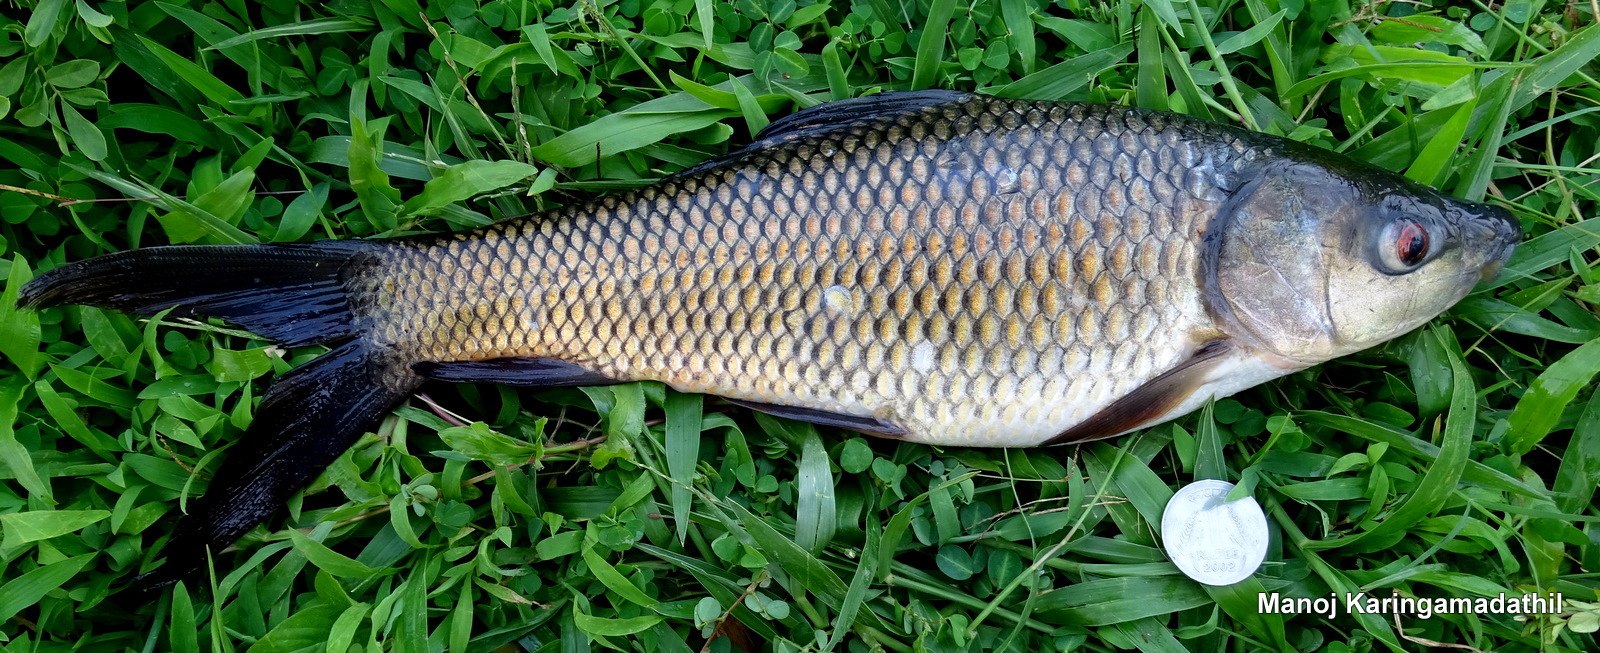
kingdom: Animalia
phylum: Chordata
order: Cypriniformes
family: Cyprinidae
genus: Labeo
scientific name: Labeo rohita
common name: Rohu
